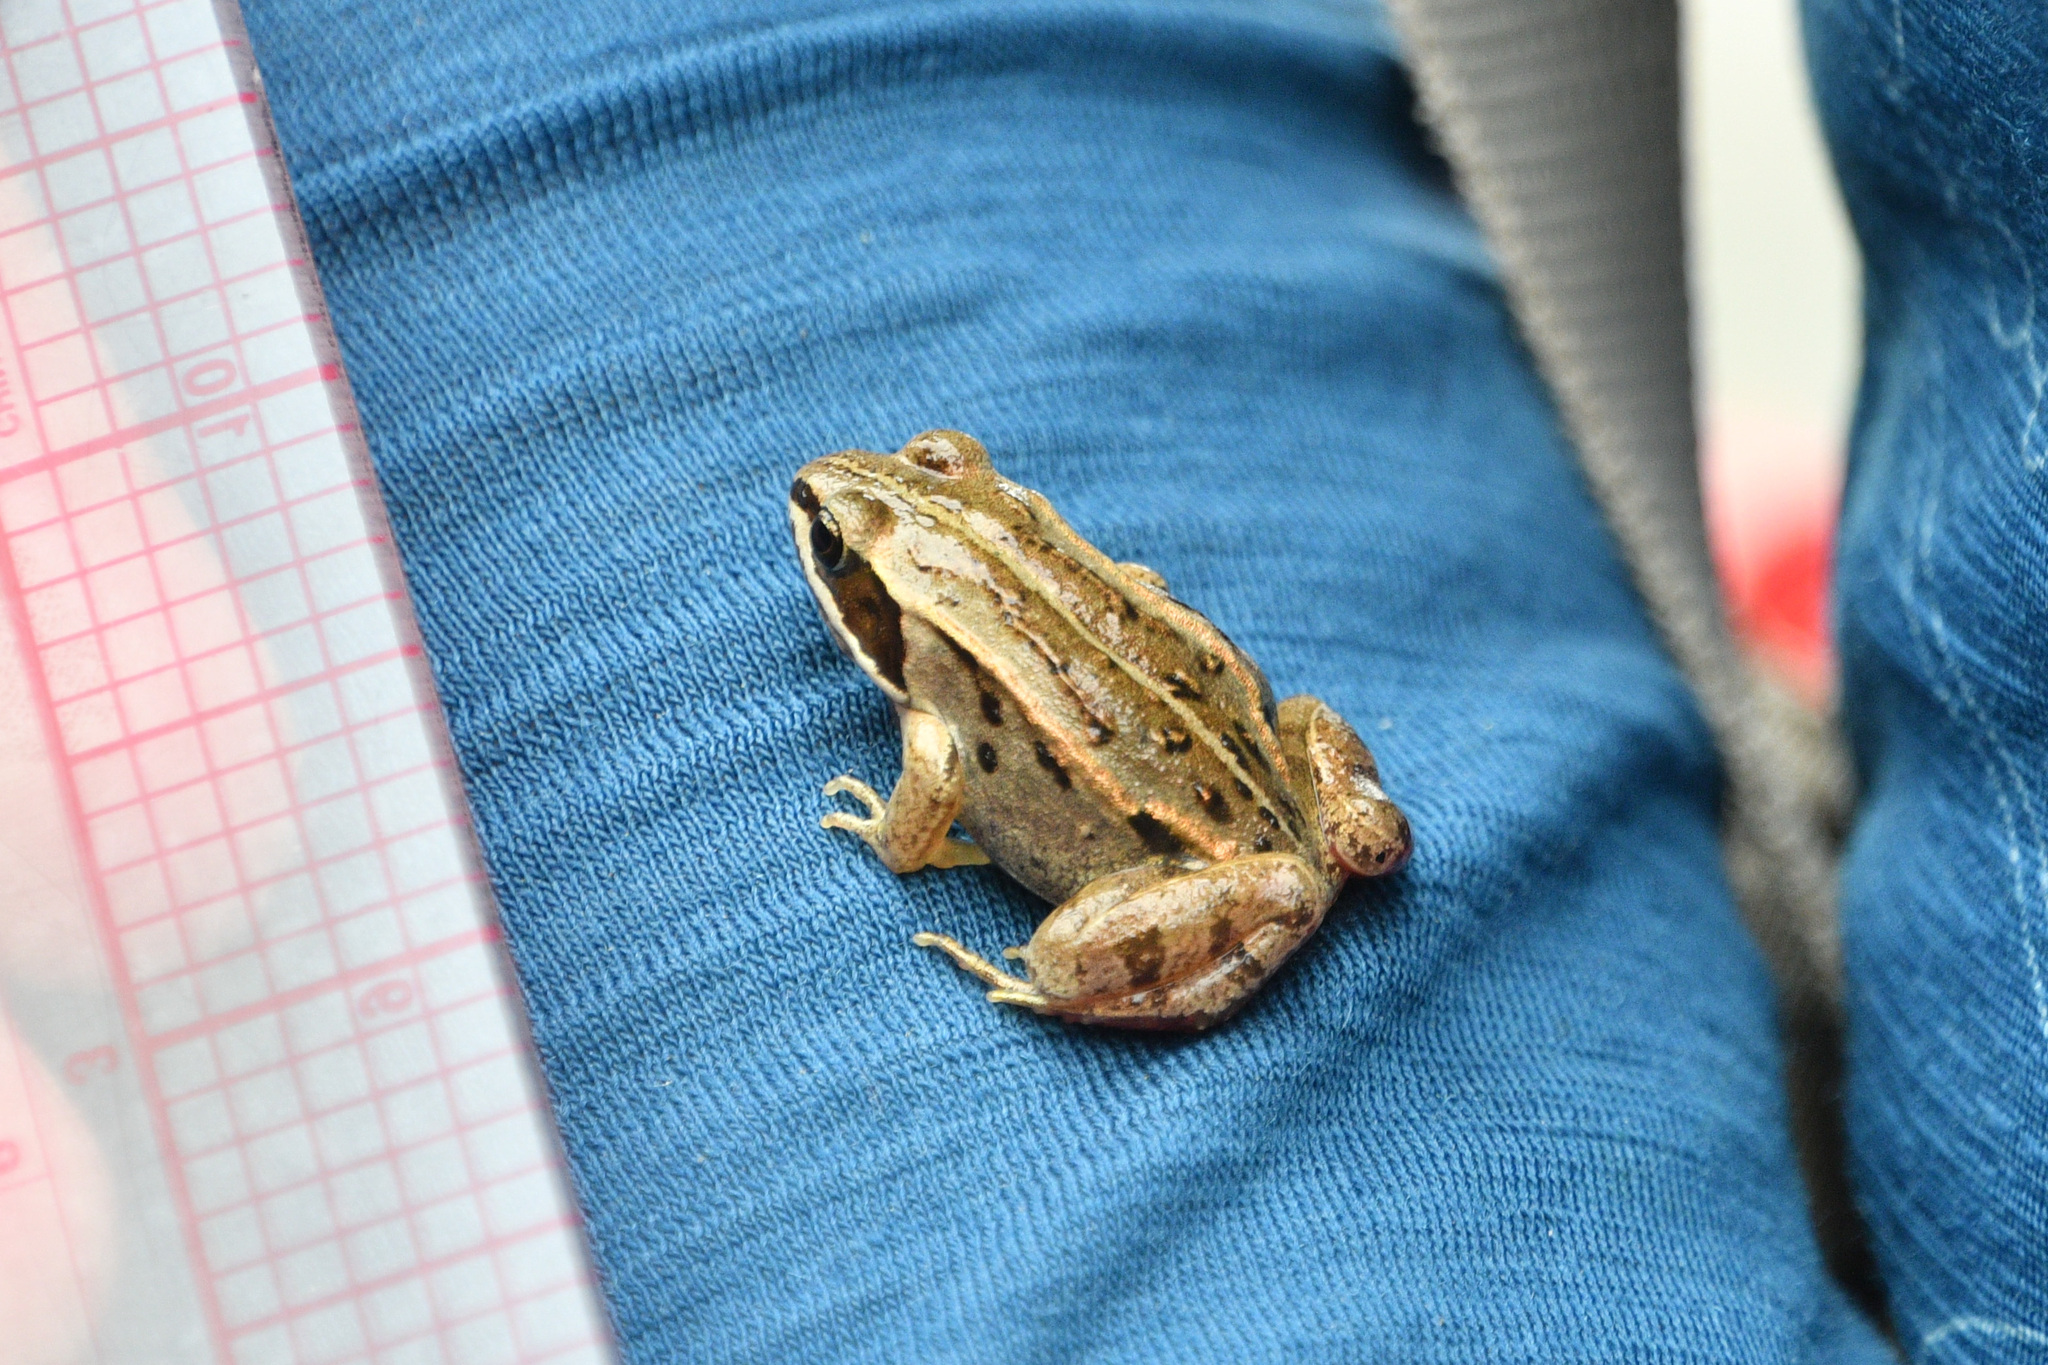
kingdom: Animalia
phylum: Chordata
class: Amphibia
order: Anura
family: Ranidae
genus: Lithobates
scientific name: Lithobates sylvaticus
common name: Wood frog
